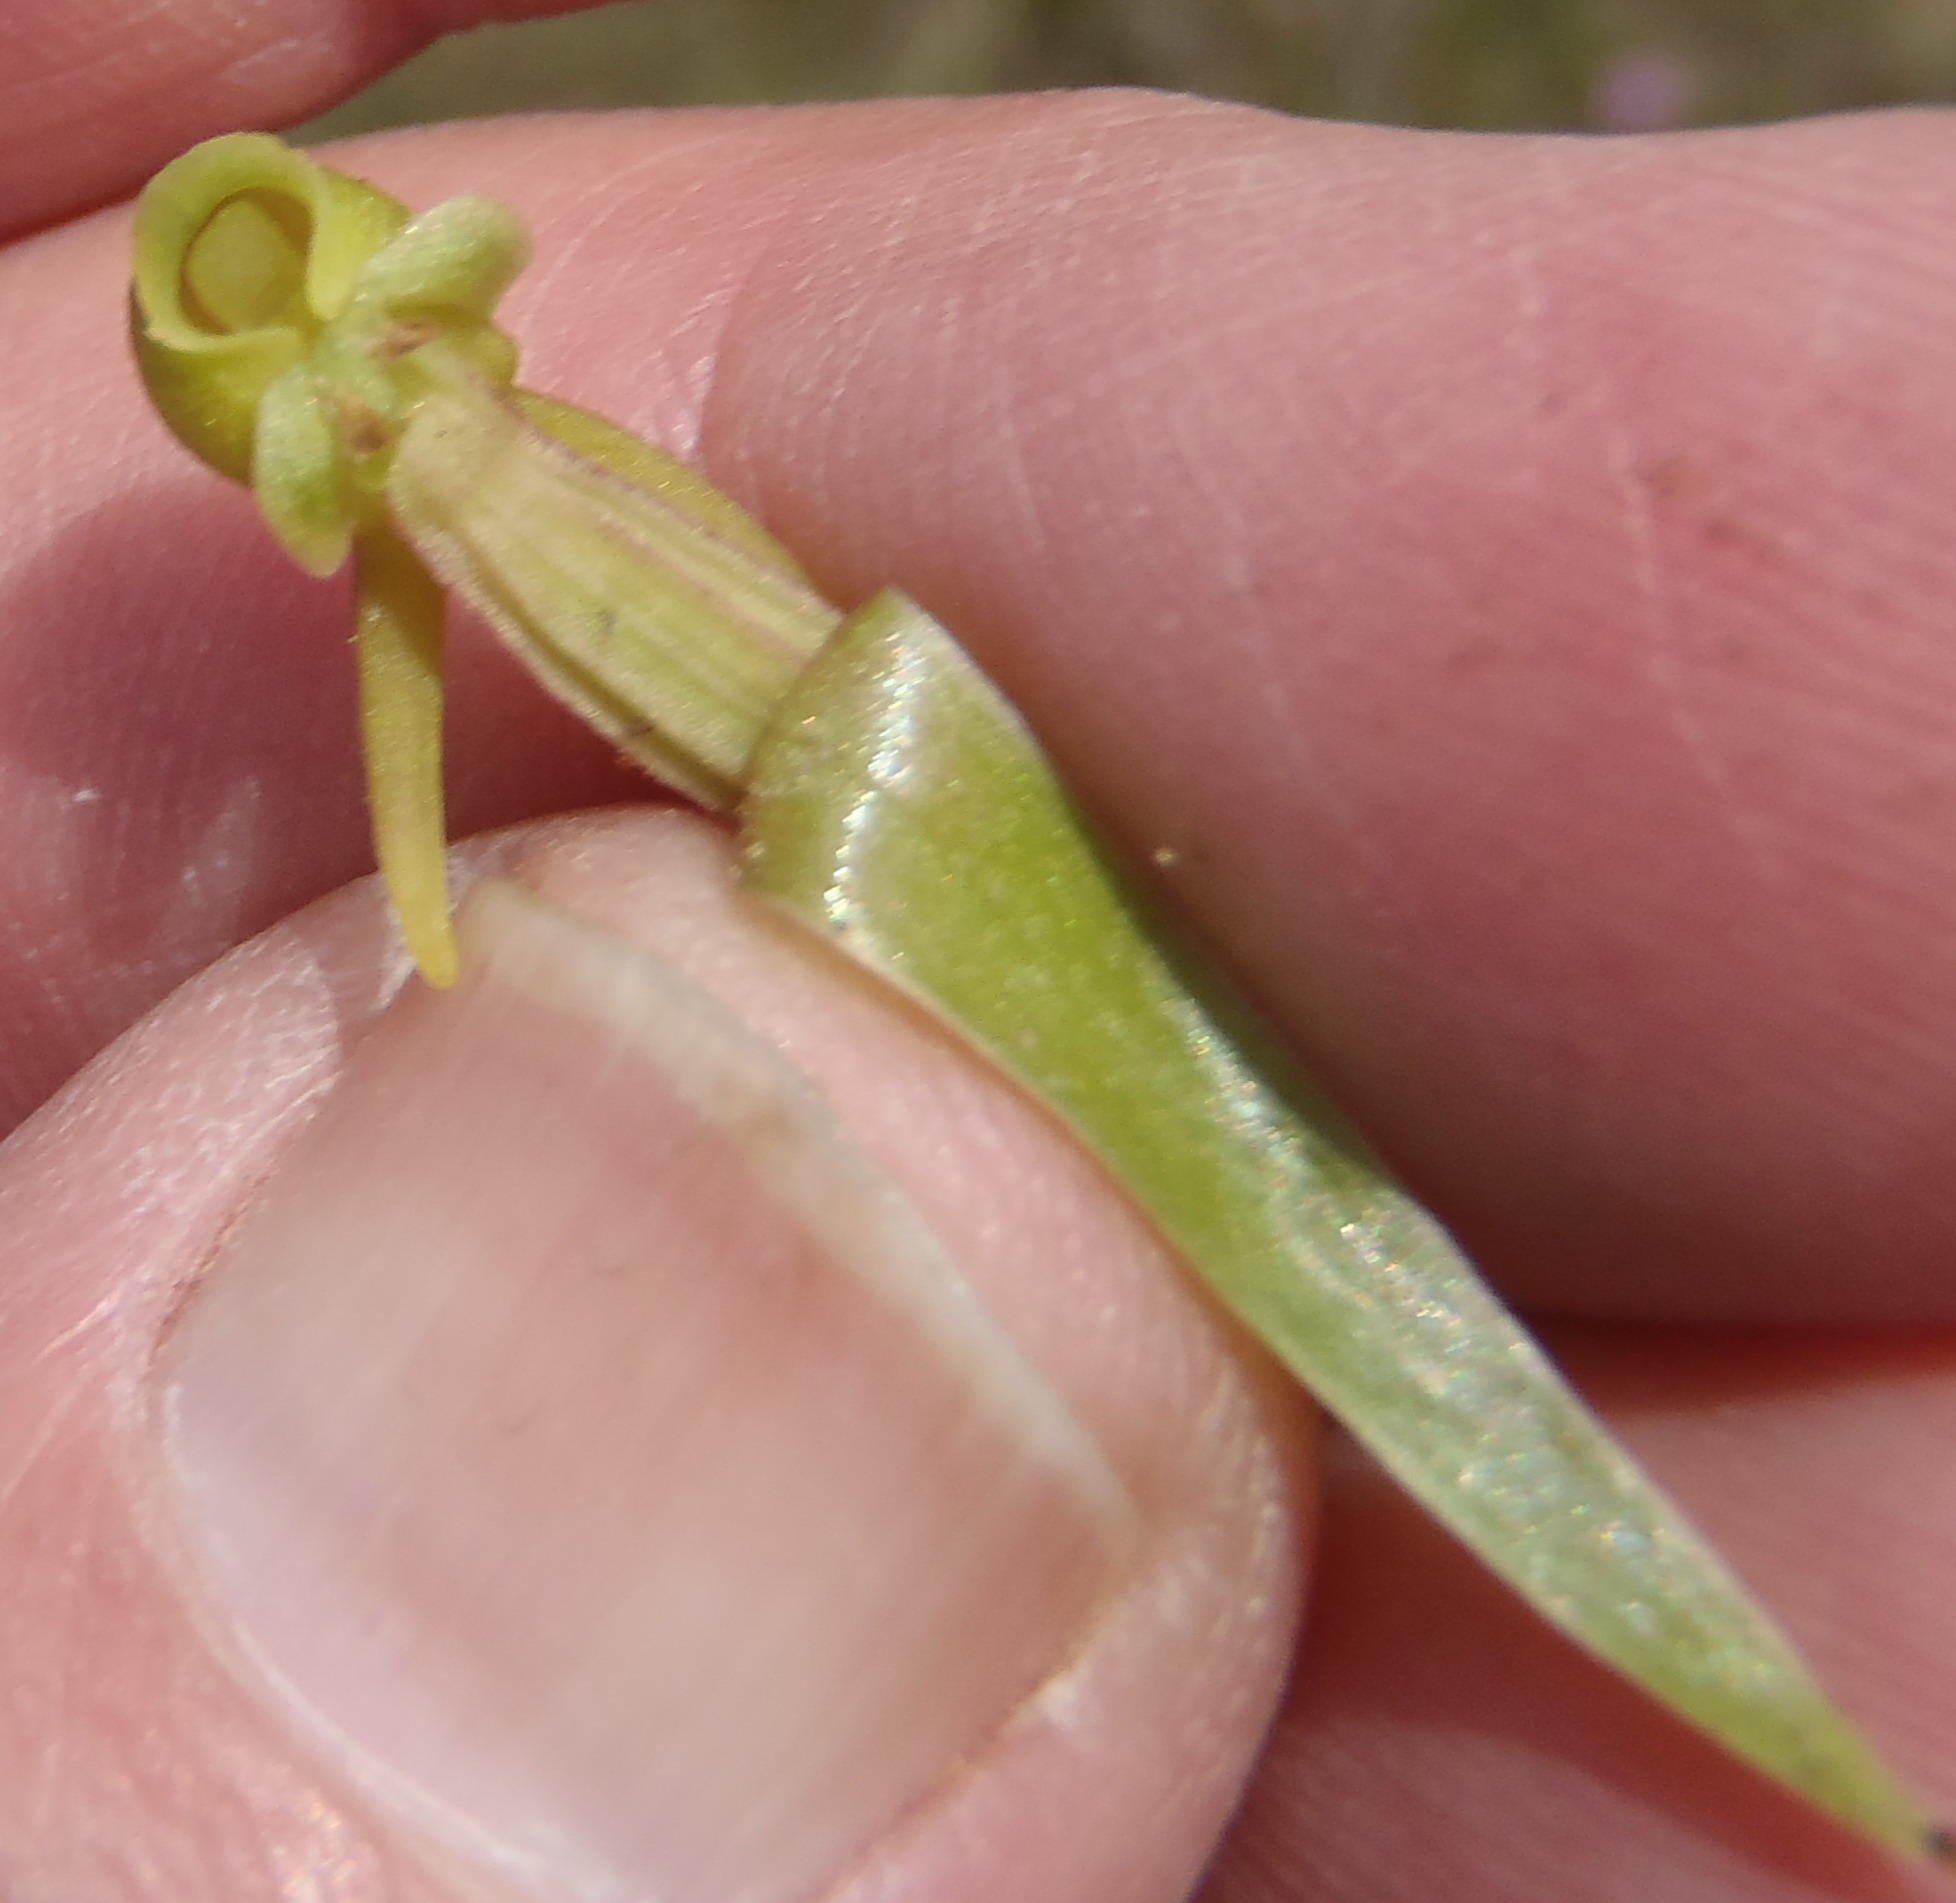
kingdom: Plantae
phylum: Tracheophyta
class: Liliopsida
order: Asparagales
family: Orchidaceae
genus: Satyrium
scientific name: Satyrium parviflorum
